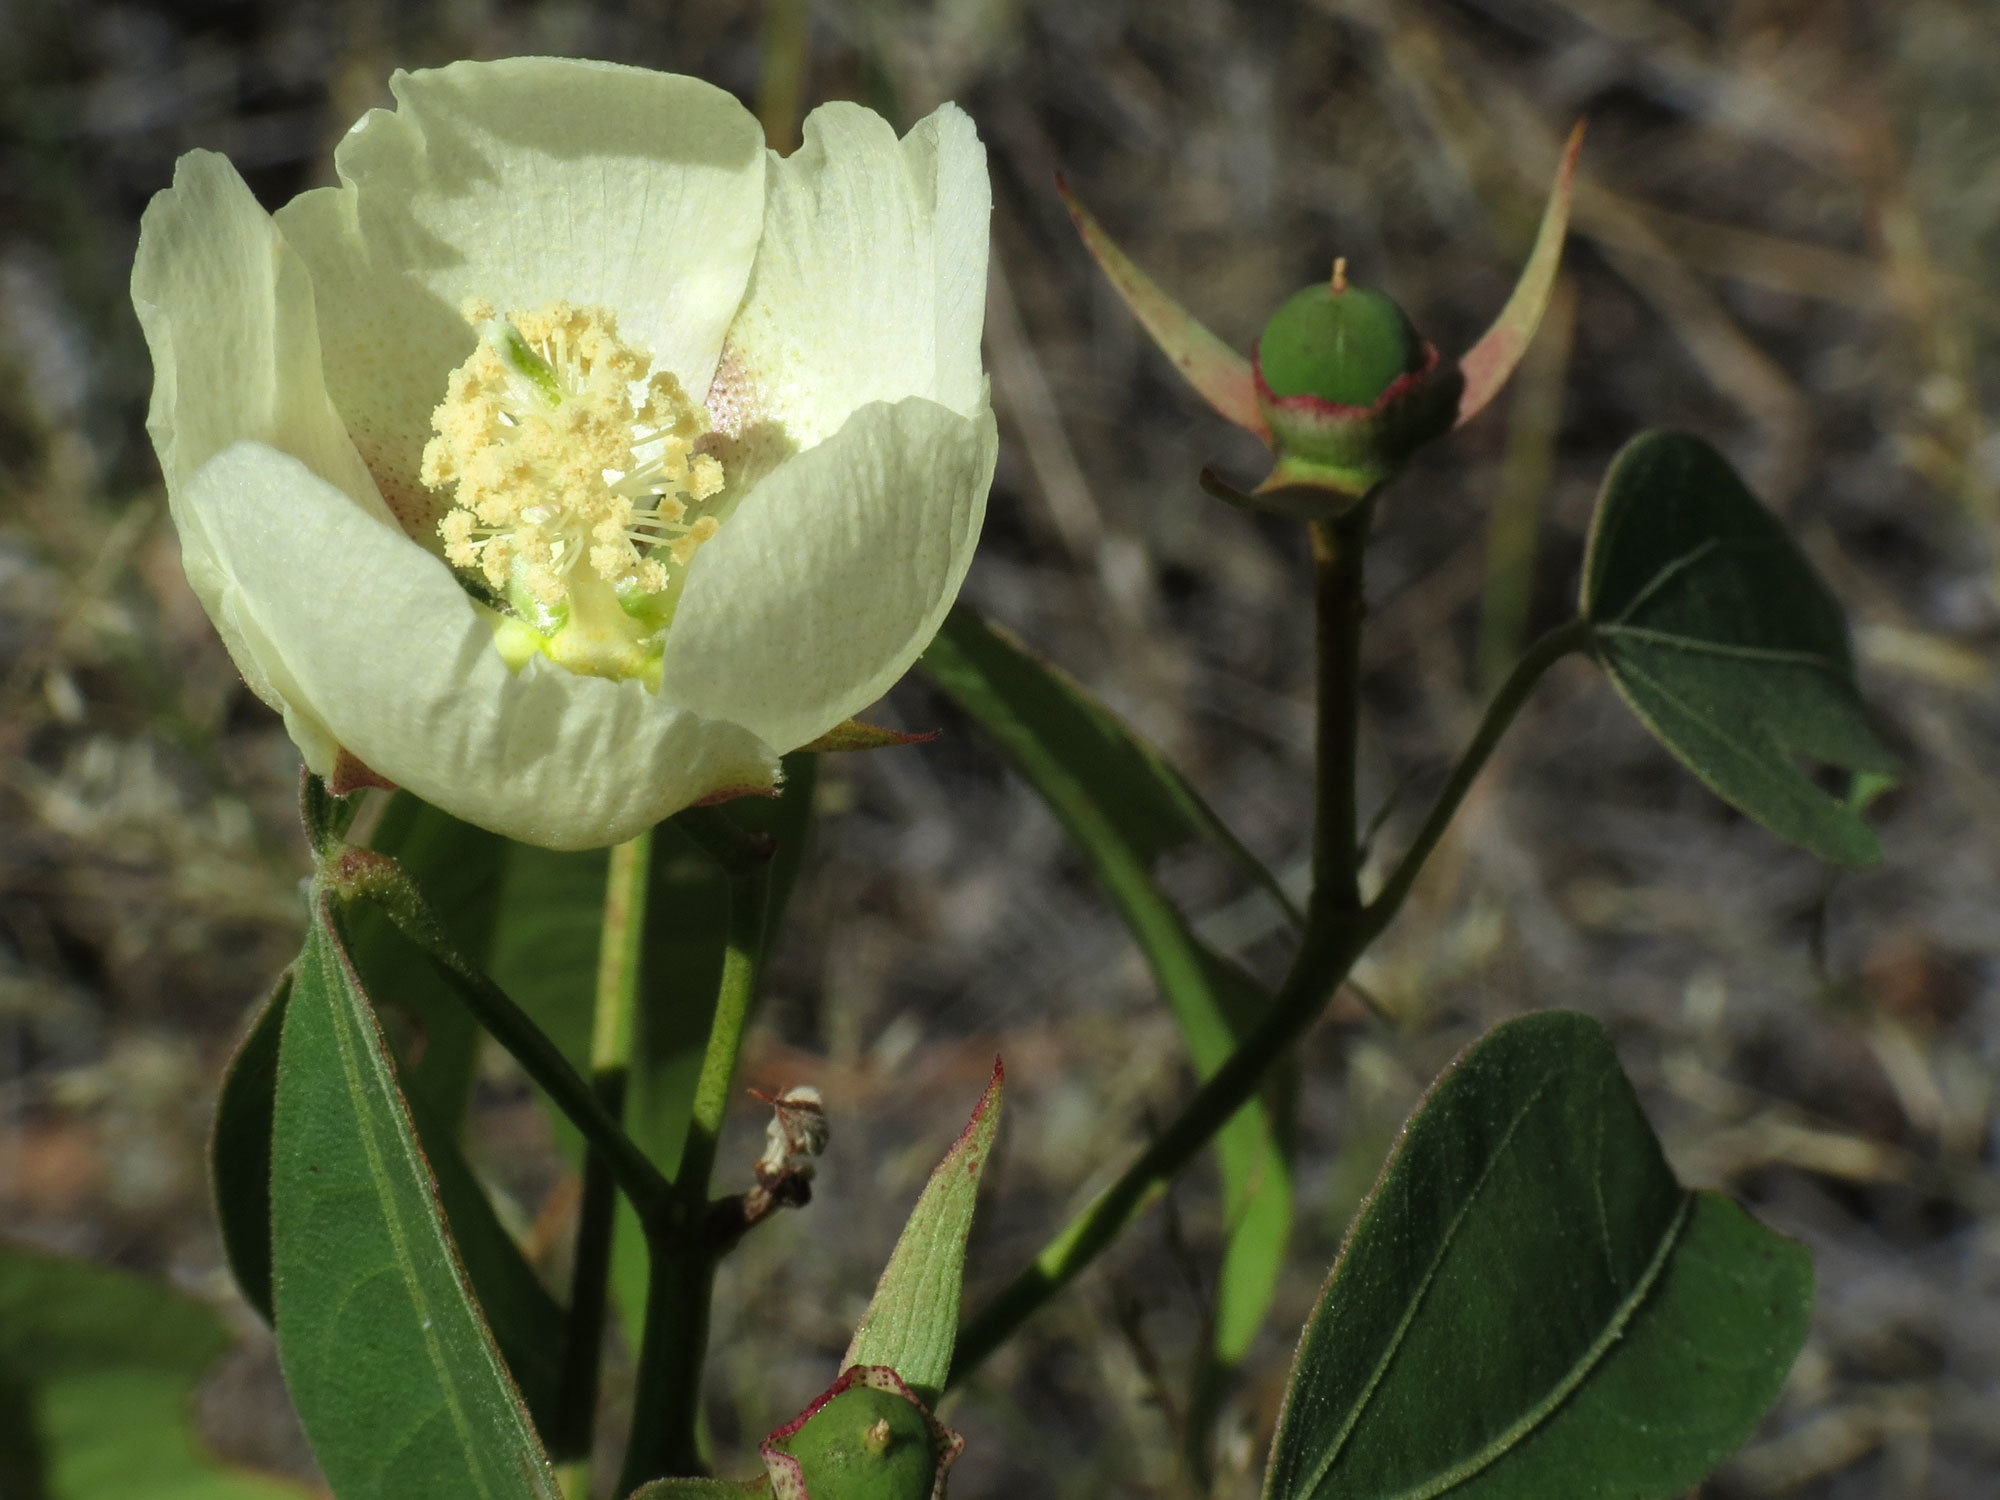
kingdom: Plantae
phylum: Tracheophyta
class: Magnoliopsida
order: Malvales
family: Malvaceae
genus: Gossypium
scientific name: Gossypium thurberi
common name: Desert cotton
